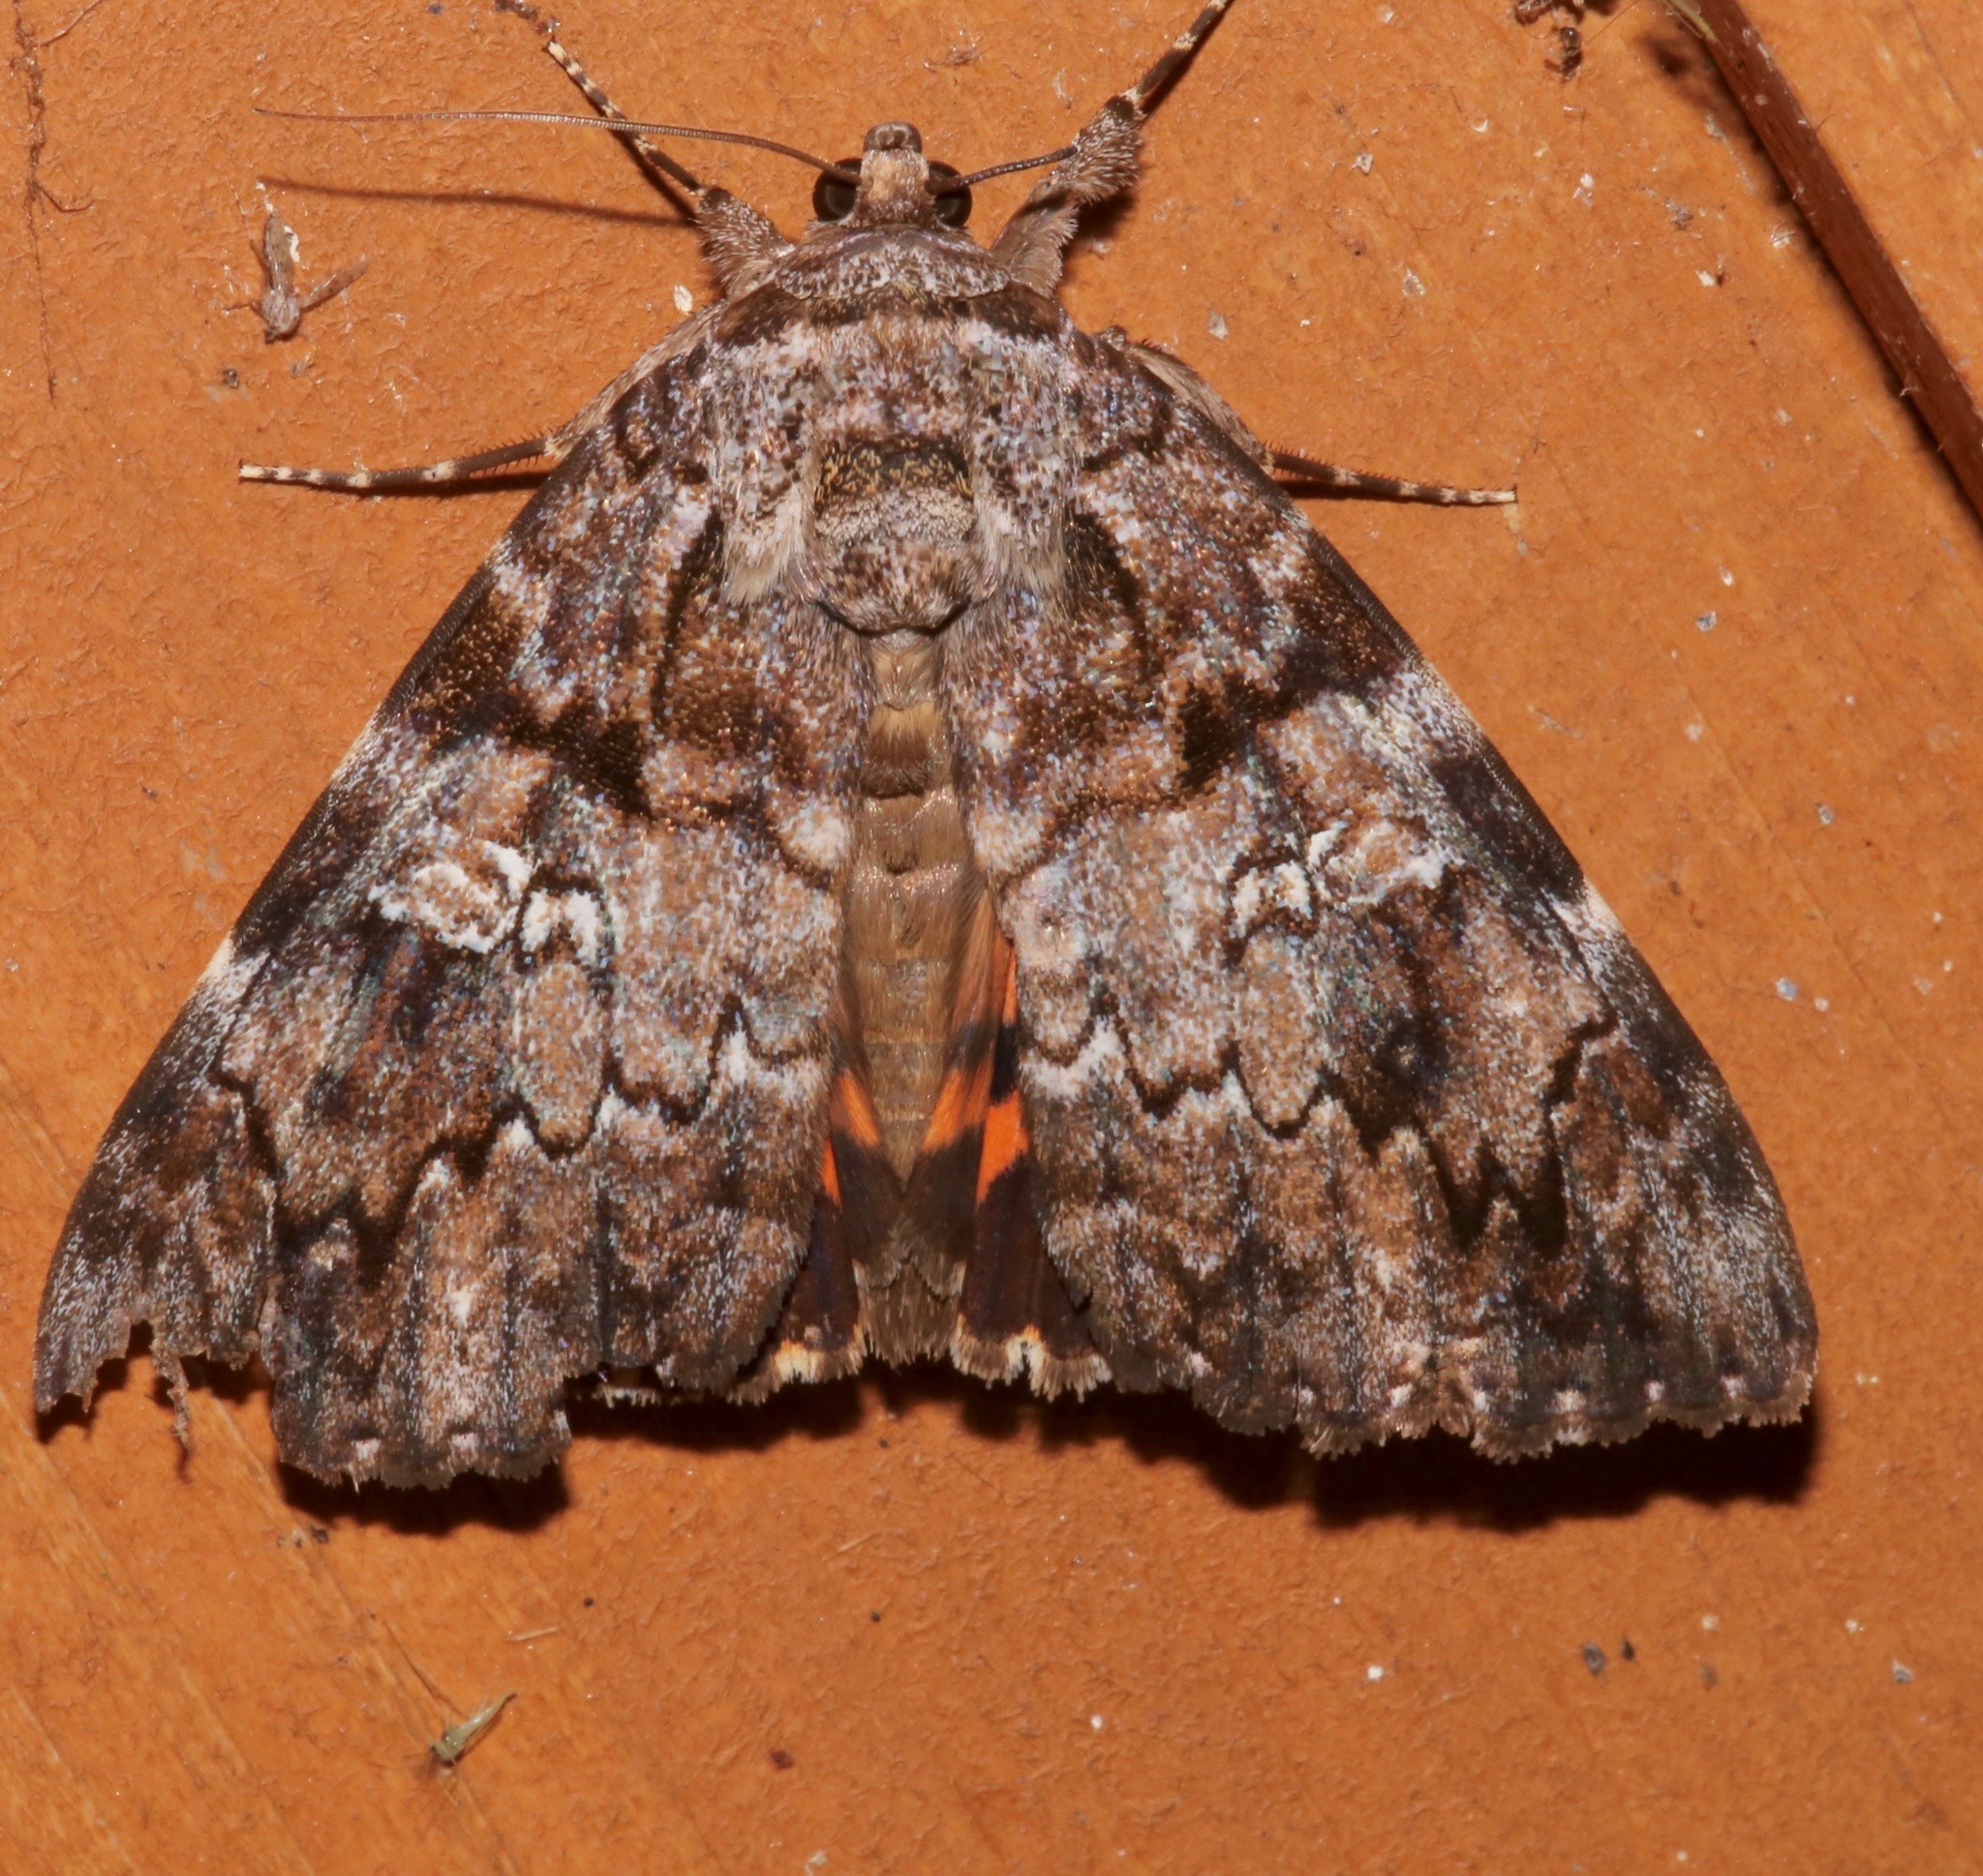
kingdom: Animalia
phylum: Arthropoda
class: Insecta
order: Lepidoptera
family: Erebidae
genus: Catocala
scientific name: Catocala ilia
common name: Ilia underwing
